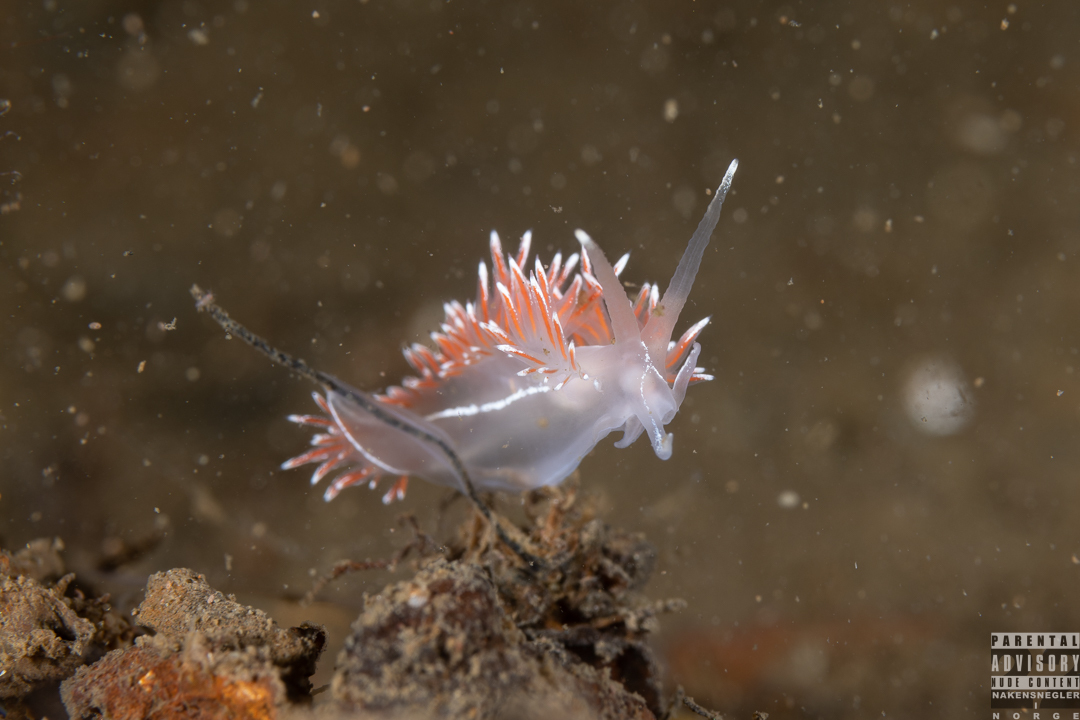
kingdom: Animalia
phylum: Mollusca
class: Gastropoda
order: Nudibranchia
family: Coryphellidae
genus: Coryphella
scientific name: Coryphella lineata
